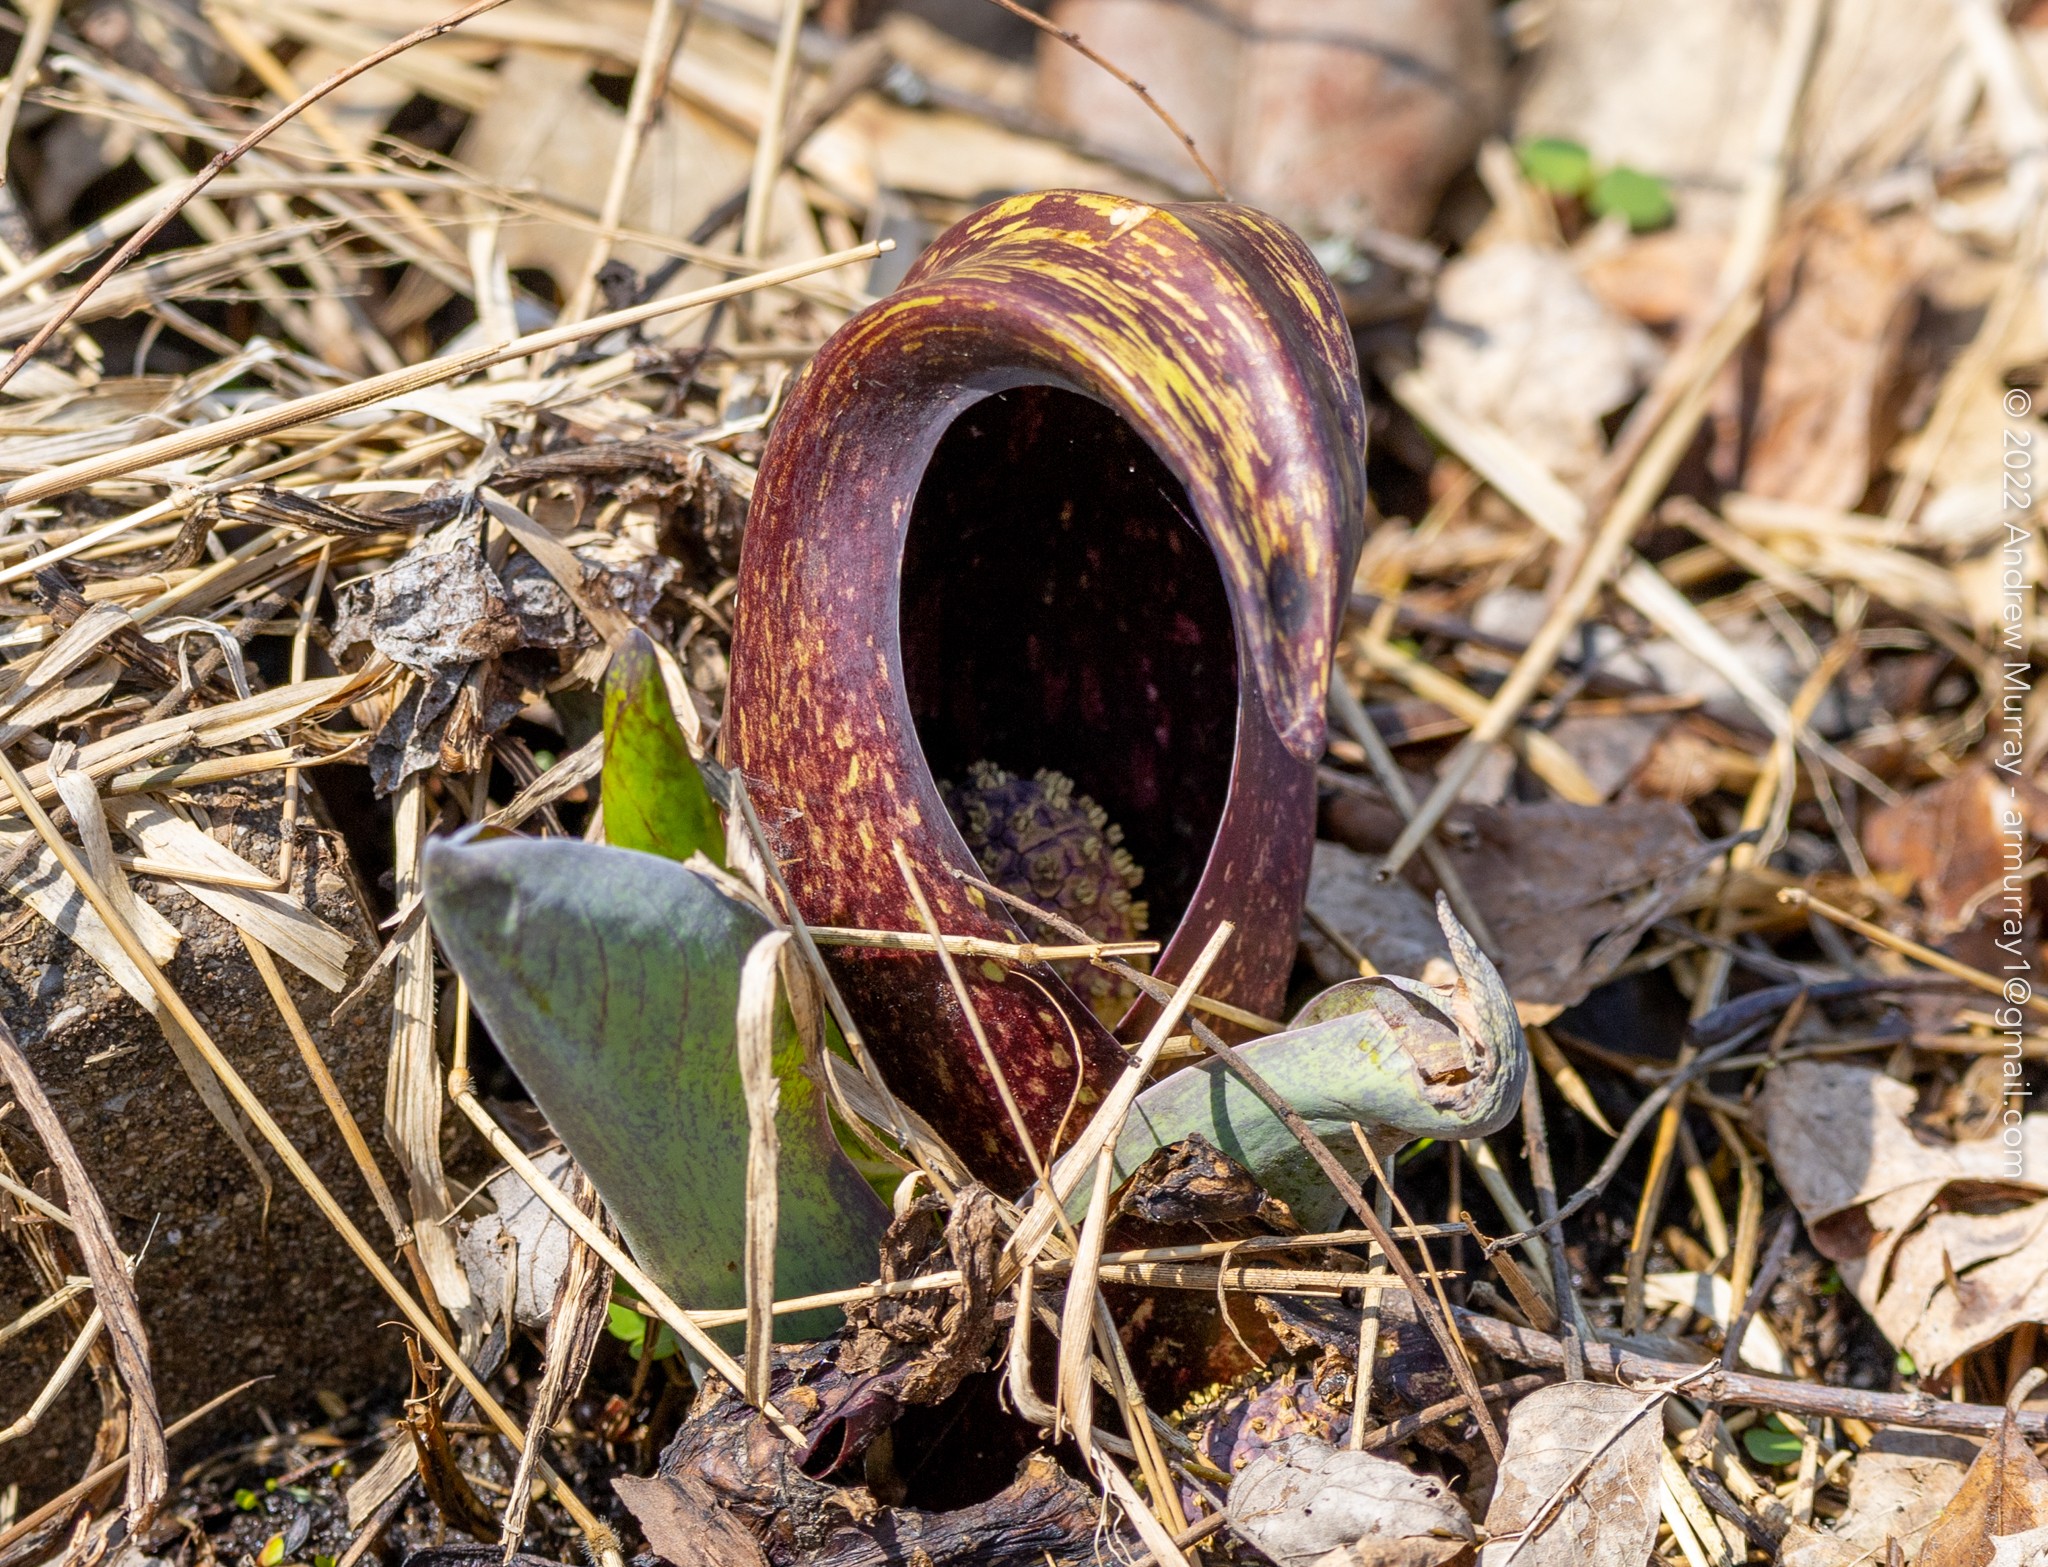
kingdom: Plantae
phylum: Tracheophyta
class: Liliopsida
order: Alismatales
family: Araceae
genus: Symplocarpus
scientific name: Symplocarpus foetidus
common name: Eastern skunk cabbage
